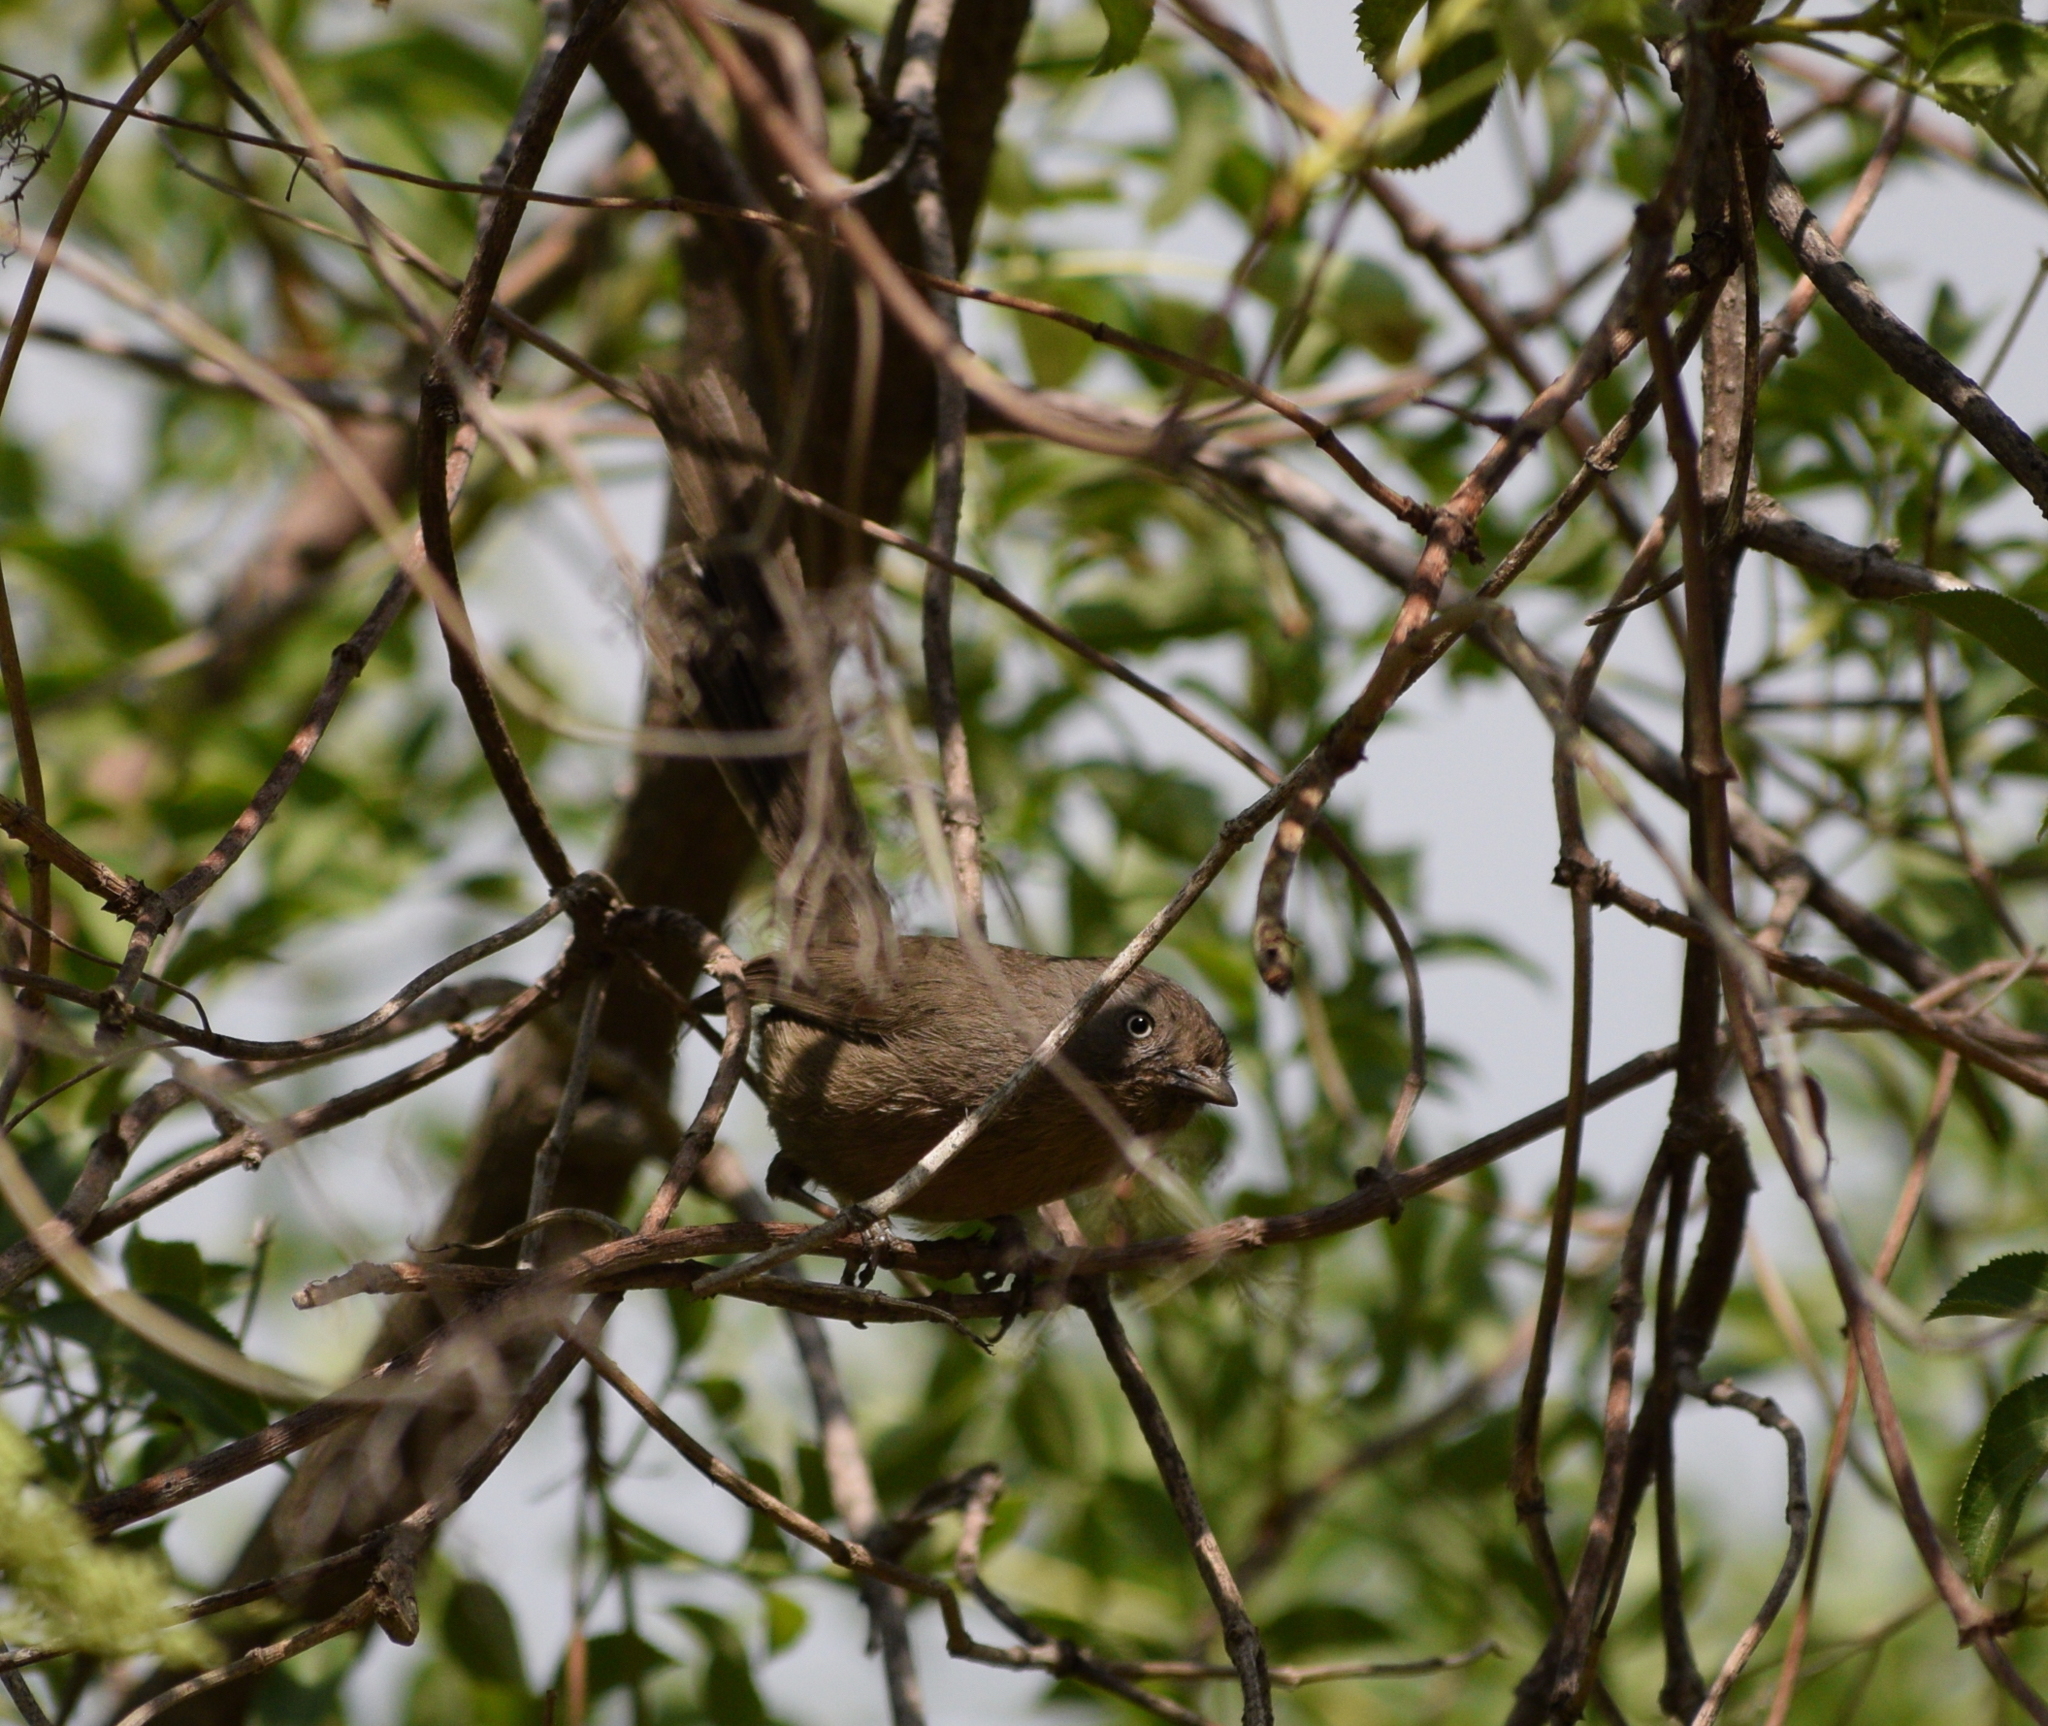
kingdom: Animalia
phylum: Chordata
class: Aves
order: Passeriformes
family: Sylviidae
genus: Chamaea
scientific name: Chamaea fasciata
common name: Wrentit
